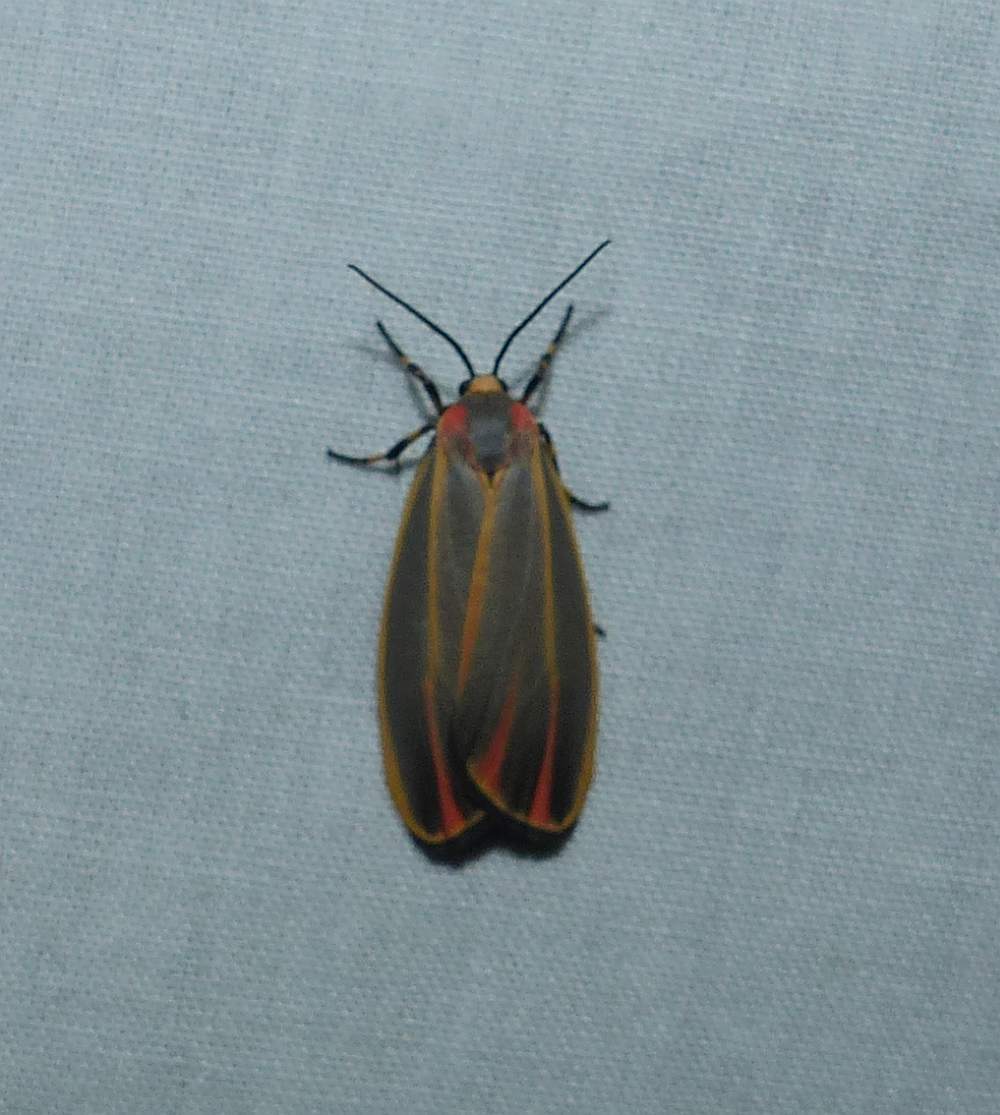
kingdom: Animalia
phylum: Arthropoda
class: Insecta
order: Lepidoptera
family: Erebidae
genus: Hypoprepia
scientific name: Hypoprepia fucosa
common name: Painted lichen moth
